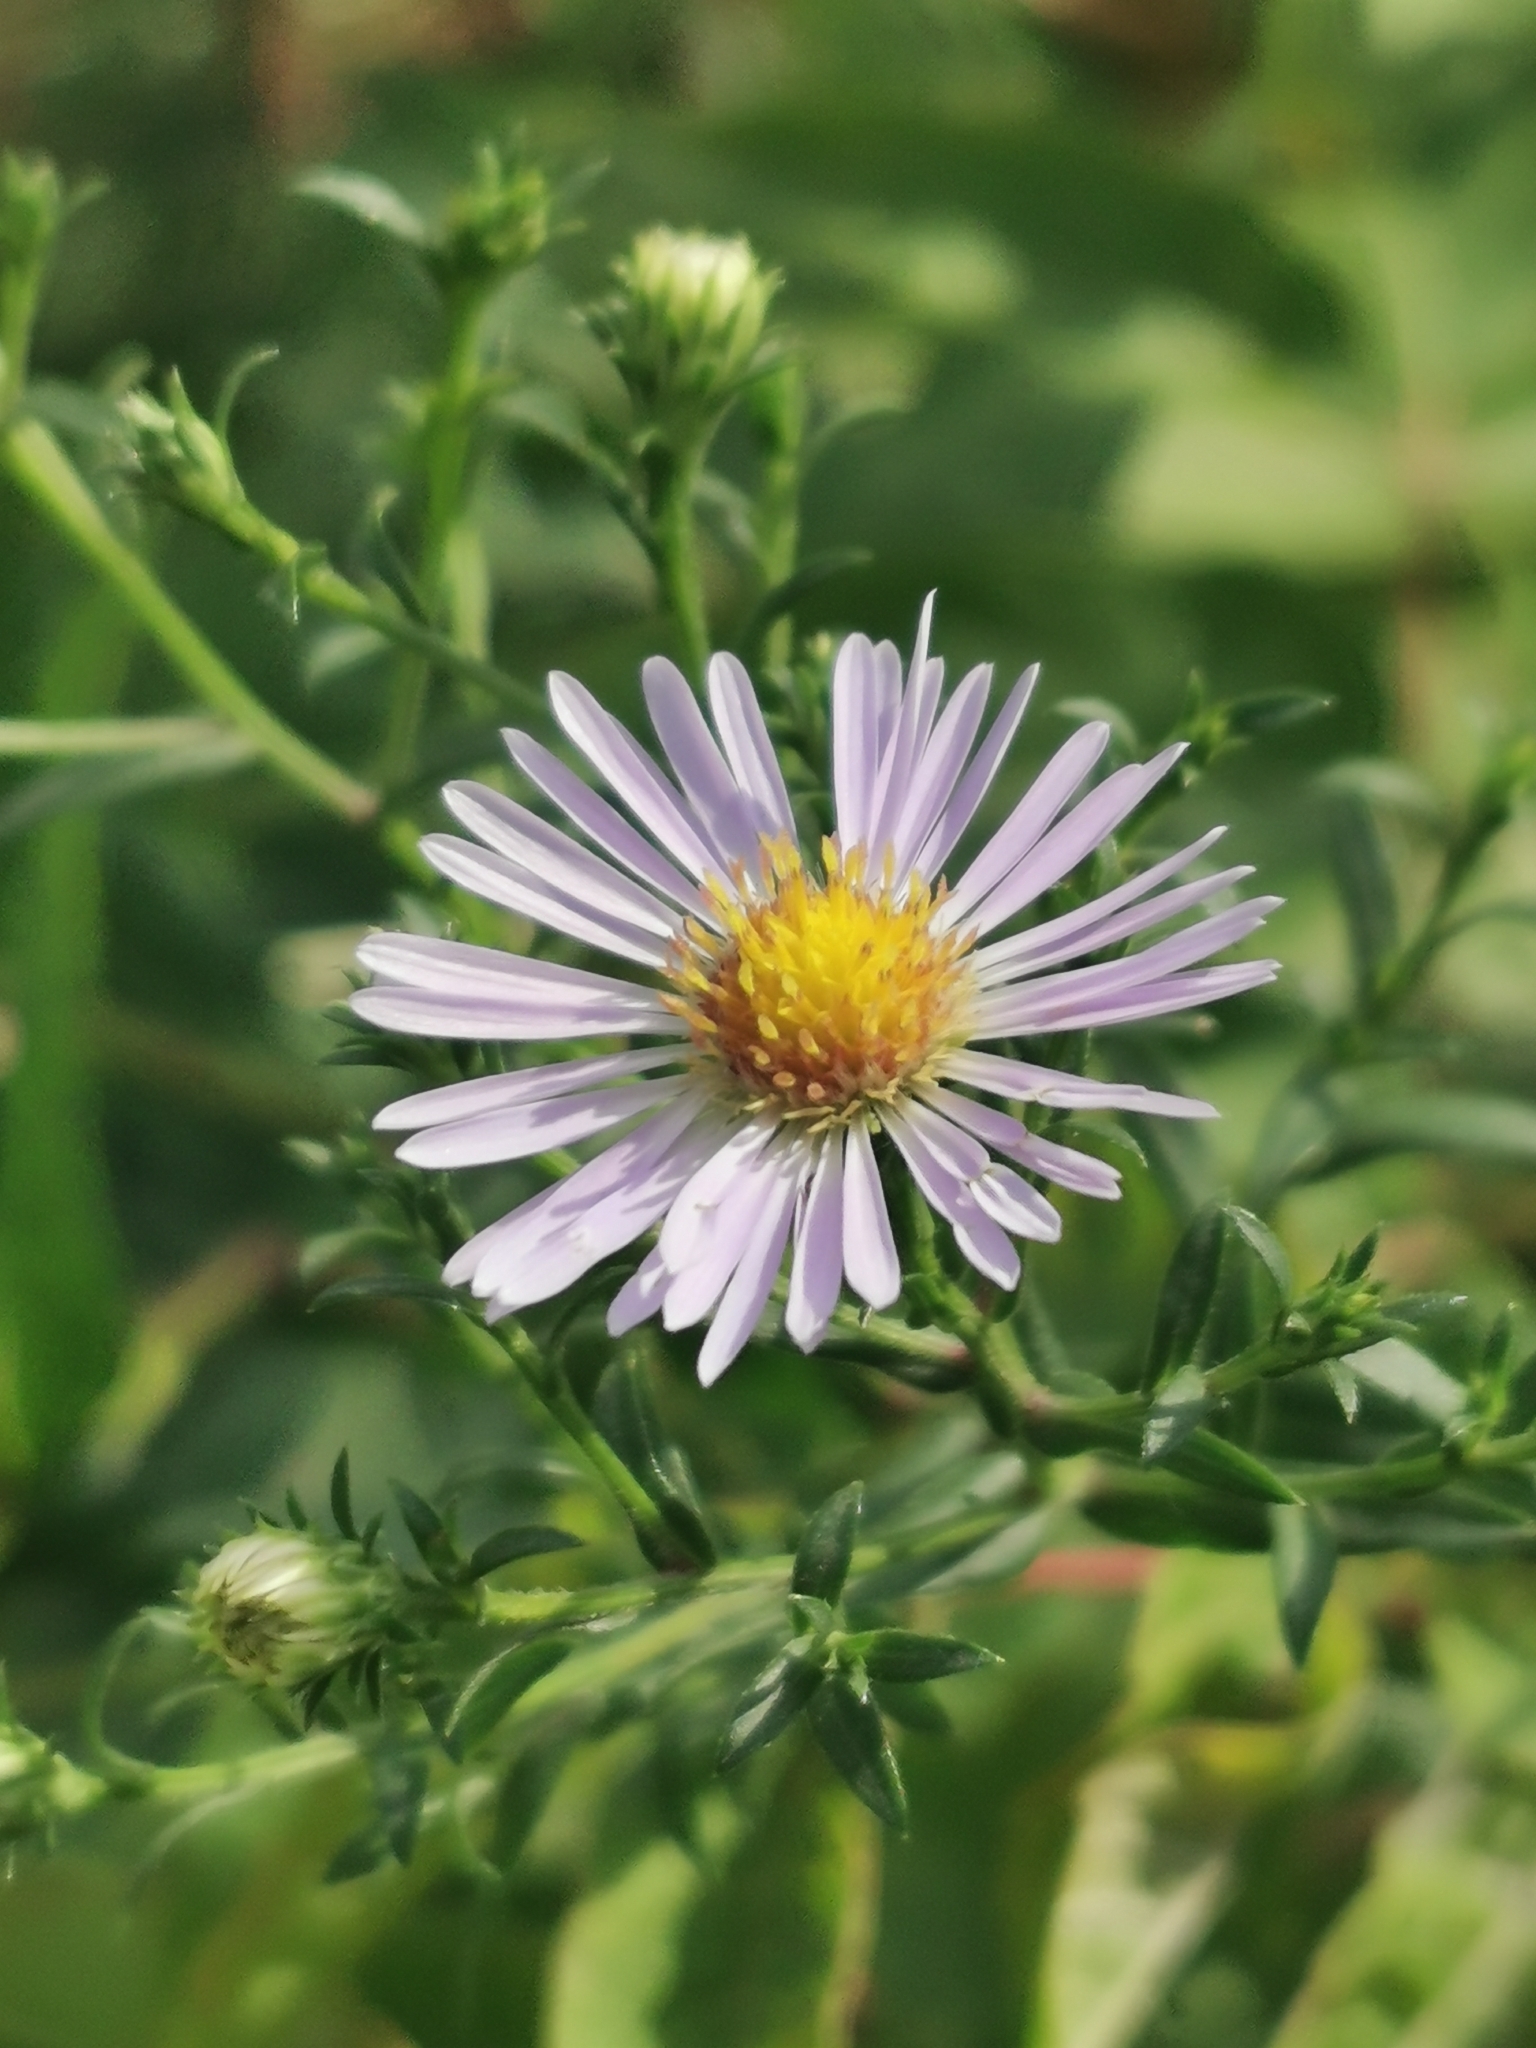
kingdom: Plantae
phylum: Tracheophyta
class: Magnoliopsida
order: Asterales
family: Asteraceae
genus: Symphyotrichum
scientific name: Symphyotrichum novi-belgii
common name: Michaelmas daisy
